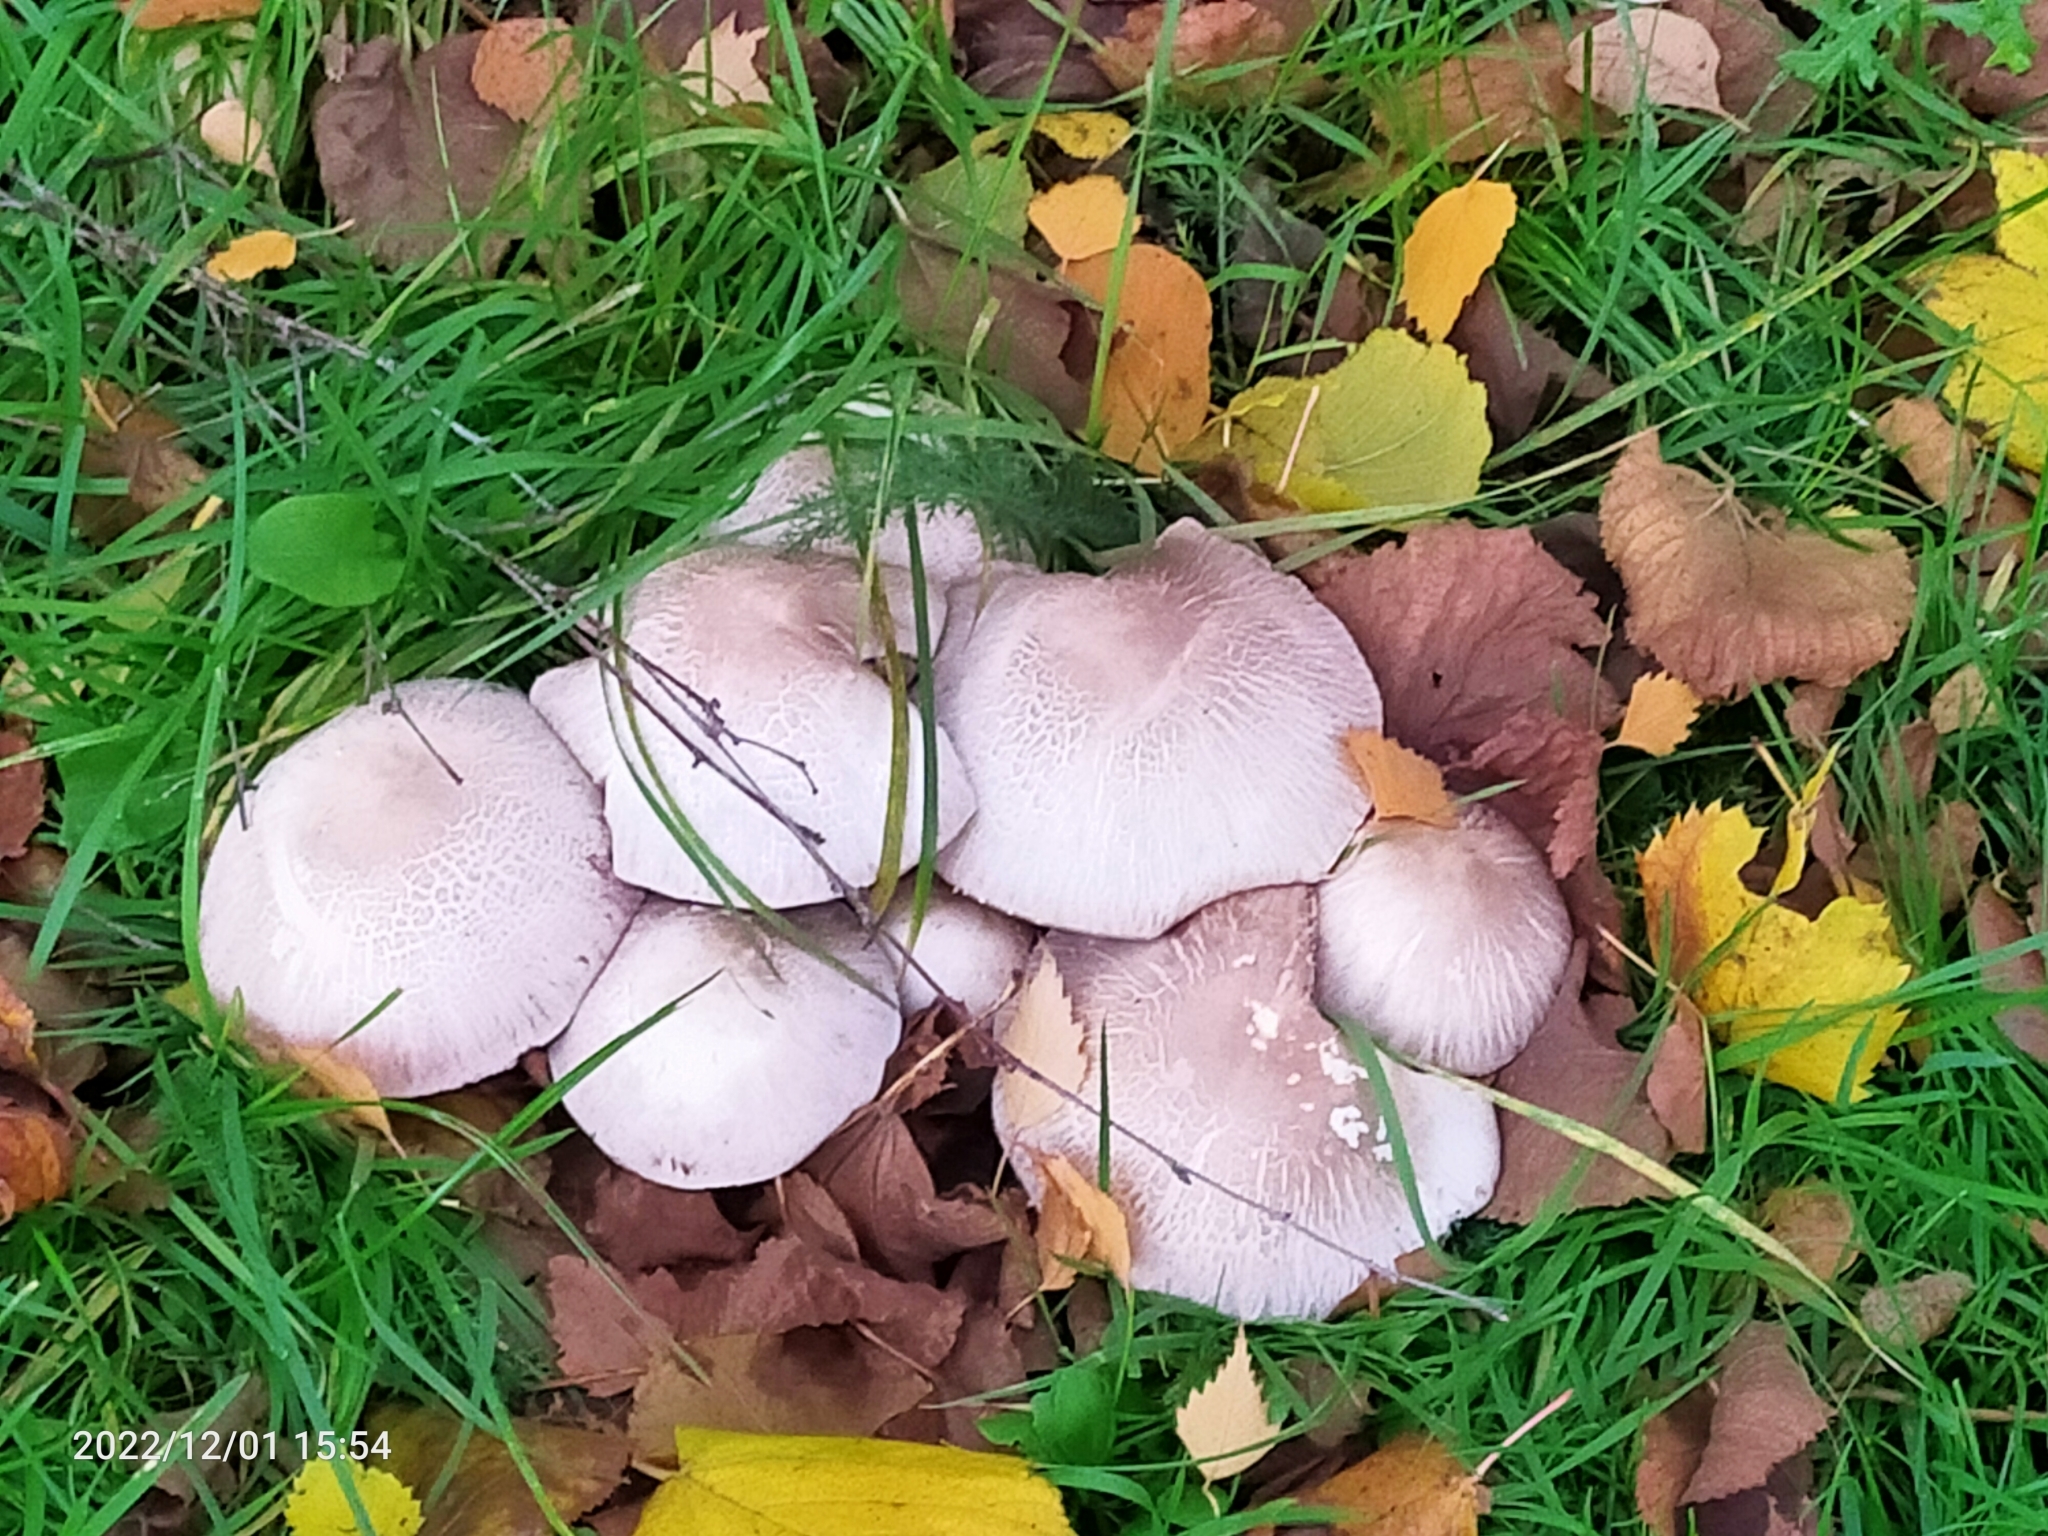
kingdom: Fungi
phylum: Basidiomycota
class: Agaricomycetes
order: Agaricales
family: Agaricaceae
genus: Agaricus
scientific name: Agaricus
